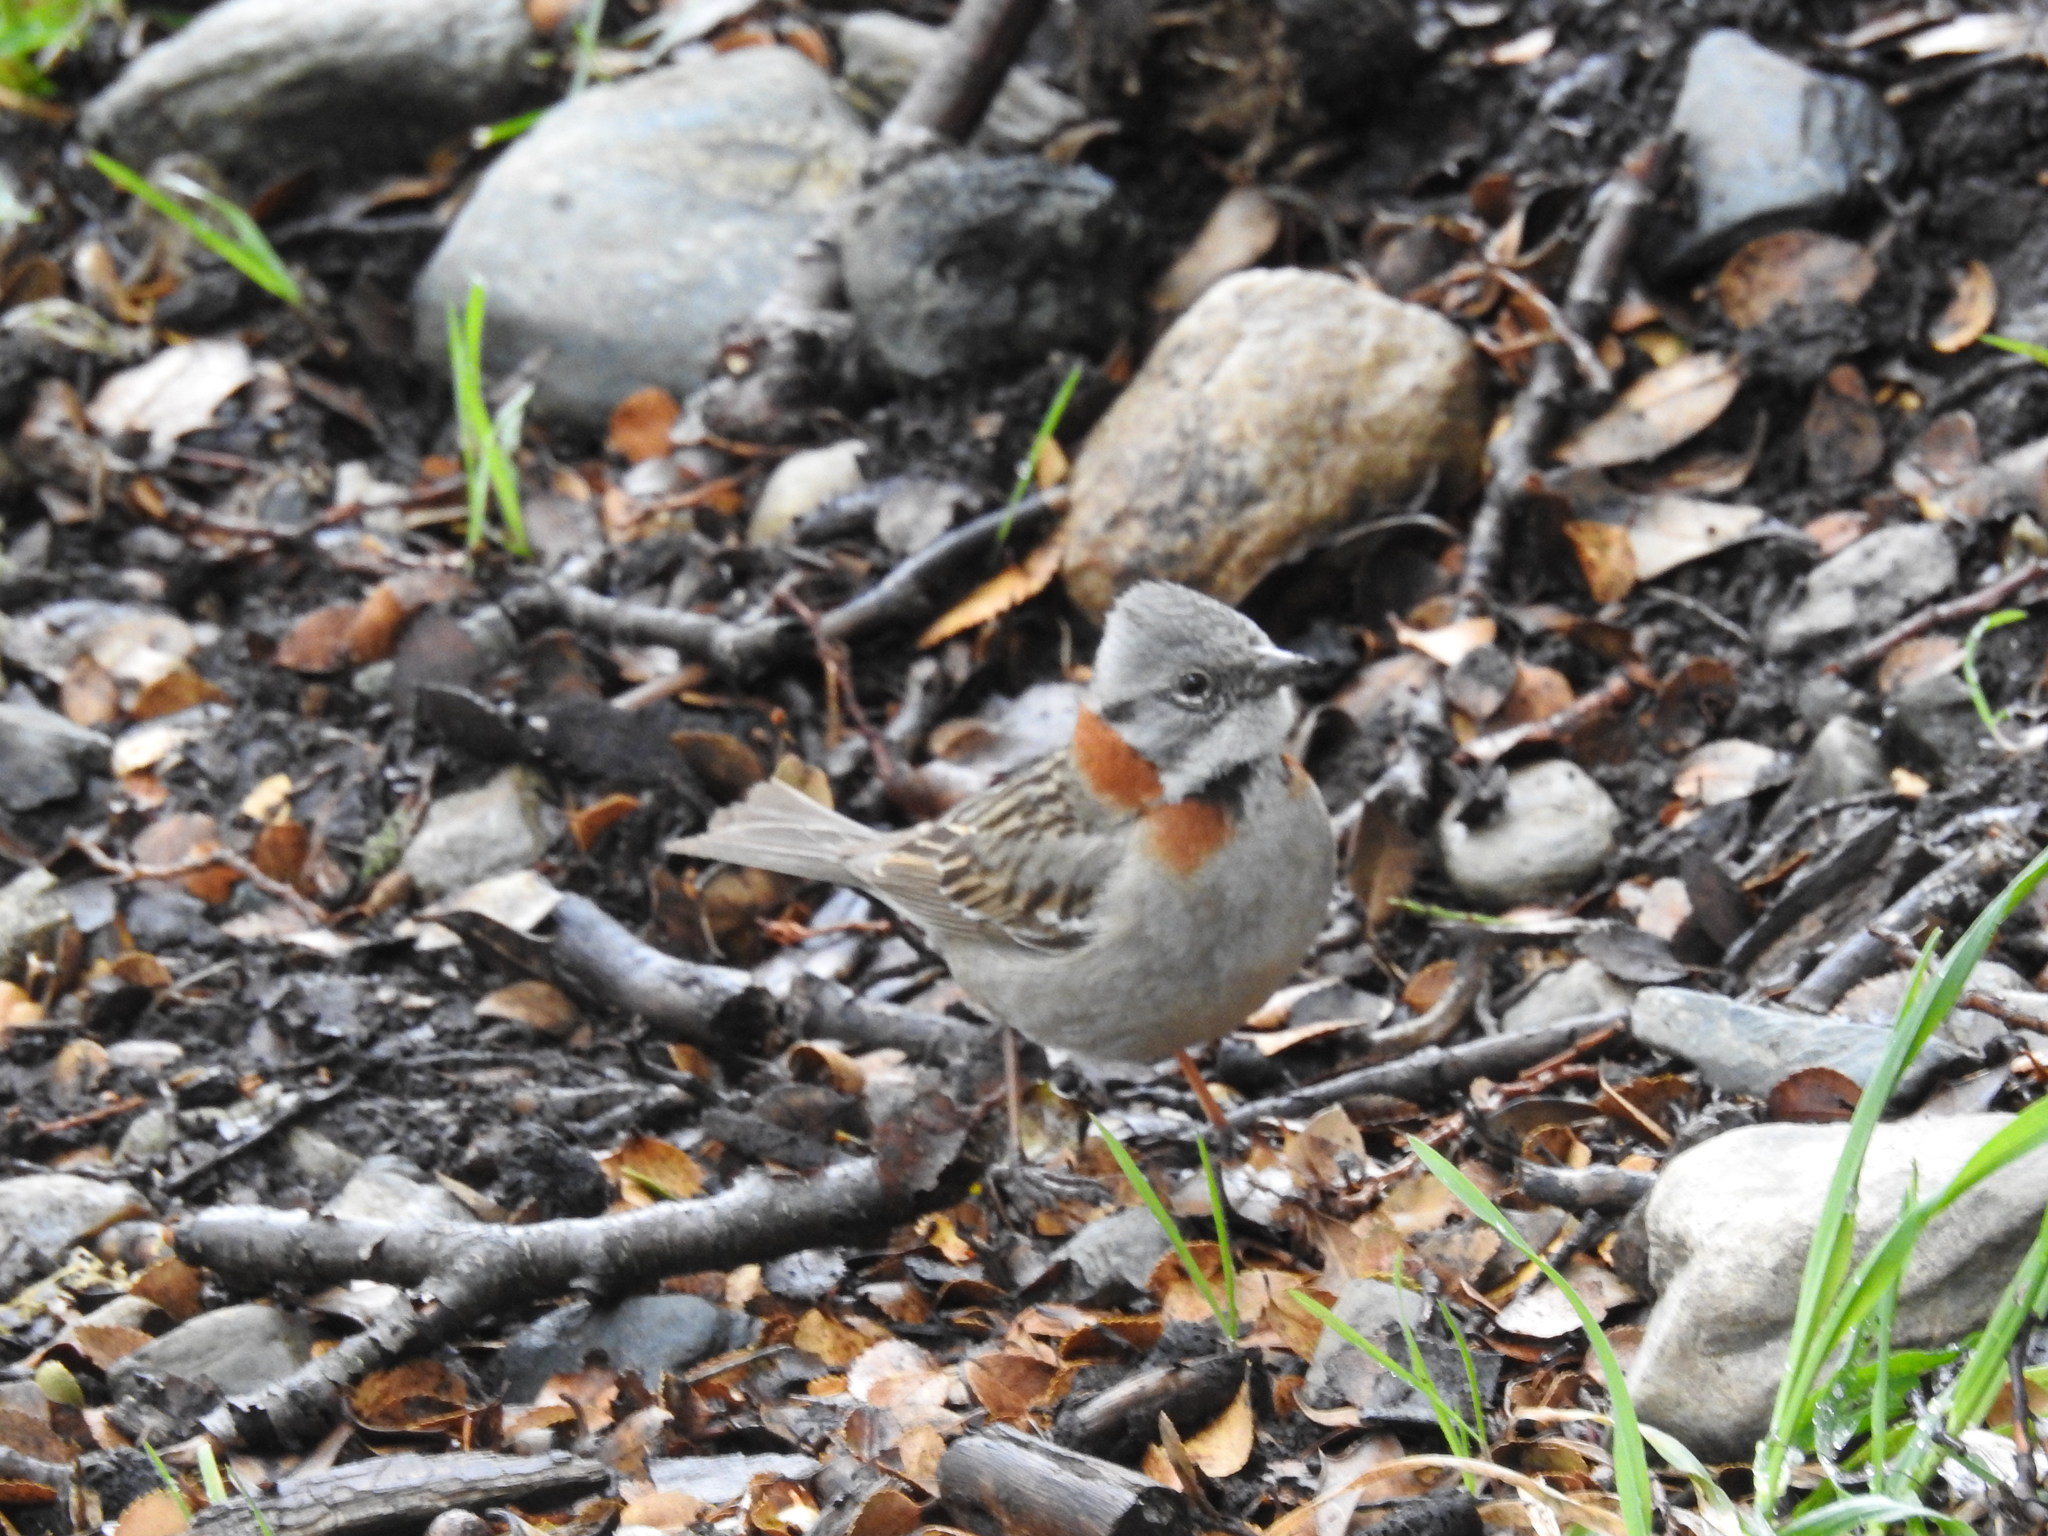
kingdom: Animalia
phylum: Chordata
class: Aves
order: Passeriformes
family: Passerellidae
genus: Zonotrichia
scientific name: Zonotrichia capensis
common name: Rufous-collared sparrow
